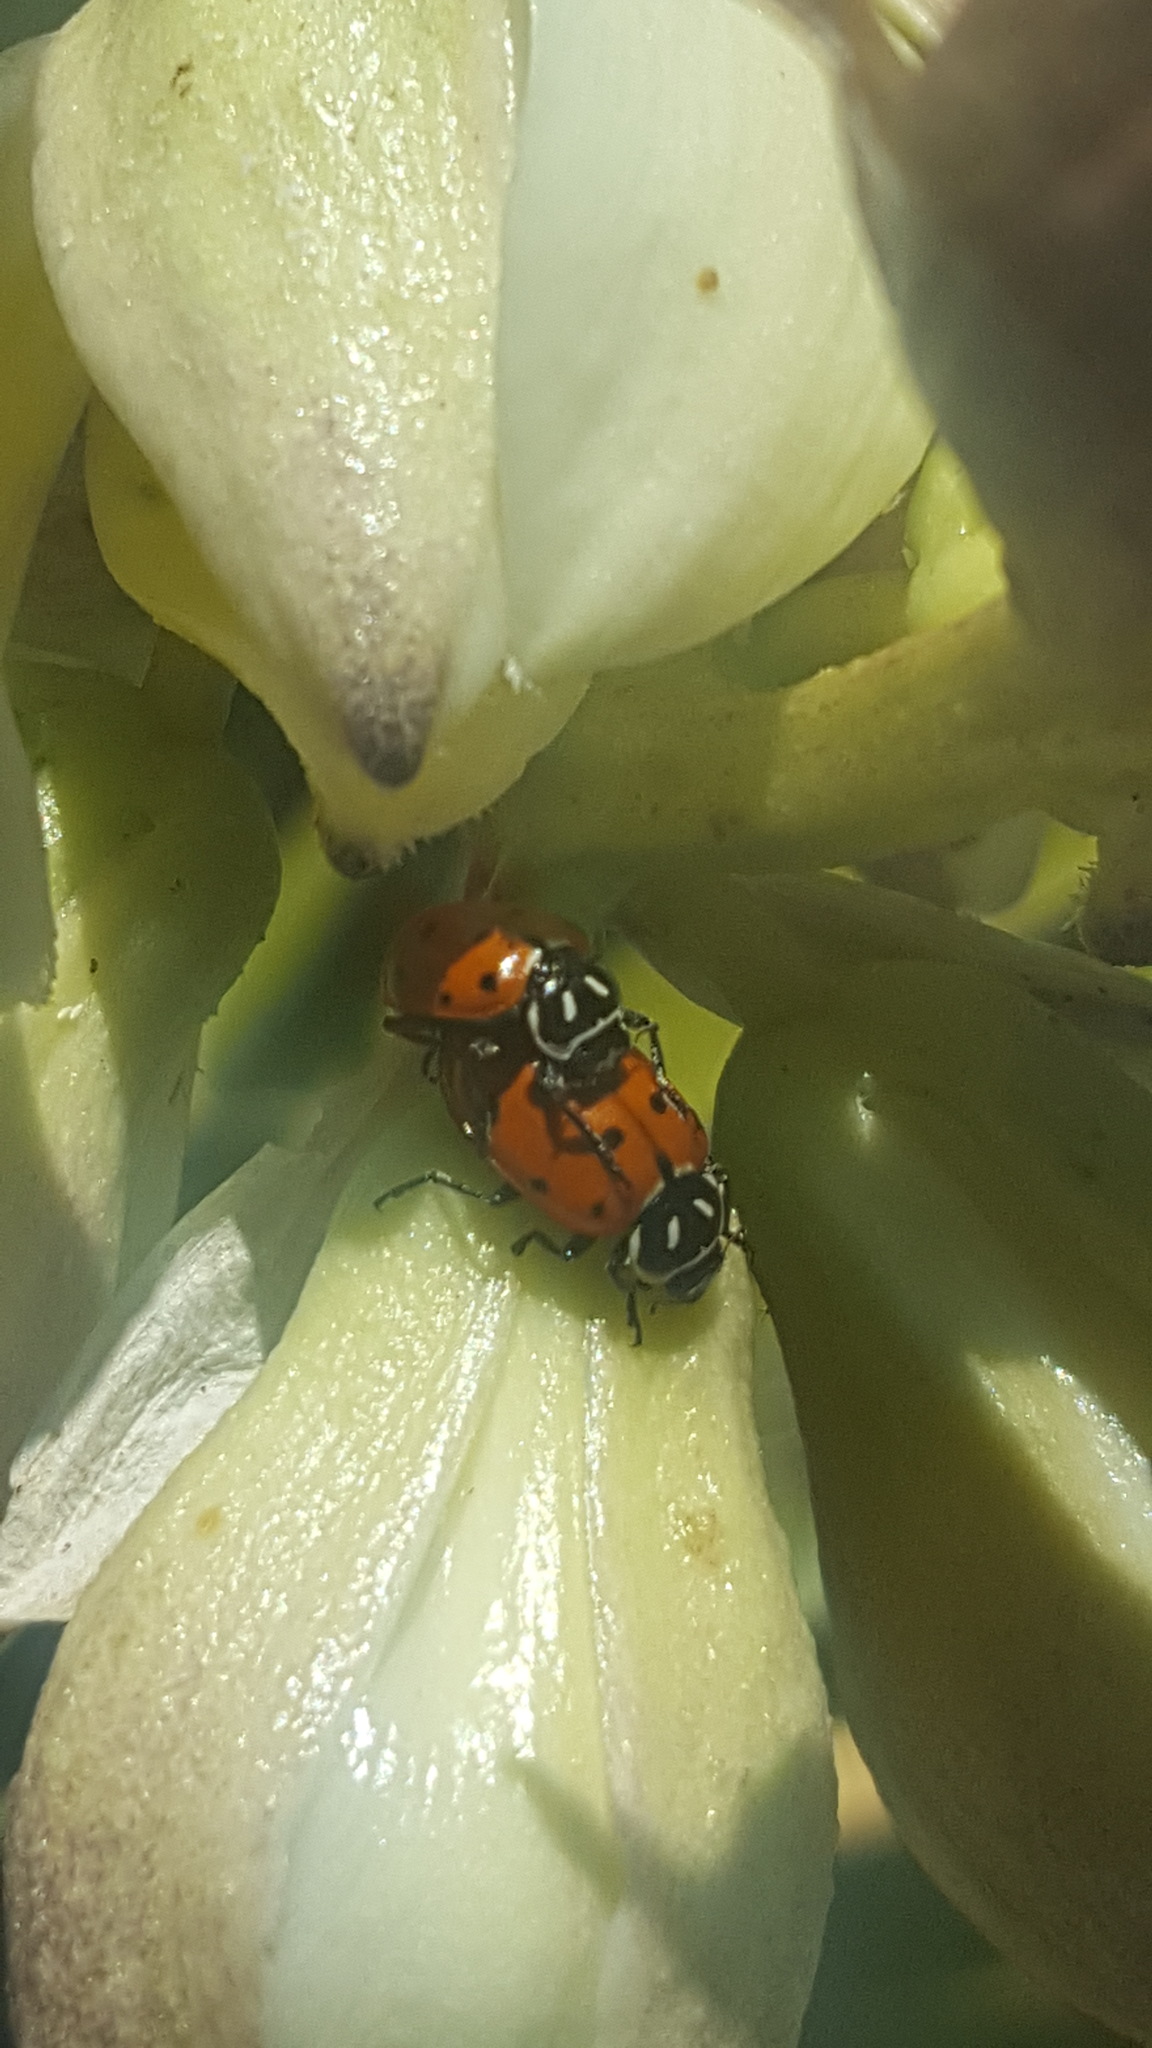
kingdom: Animalia
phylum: Arthropoda
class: Insecta
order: Coleoptera
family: Coccinellidae
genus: Hippodamia
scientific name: Hippodamia convergens
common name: Convergent lady beetle
